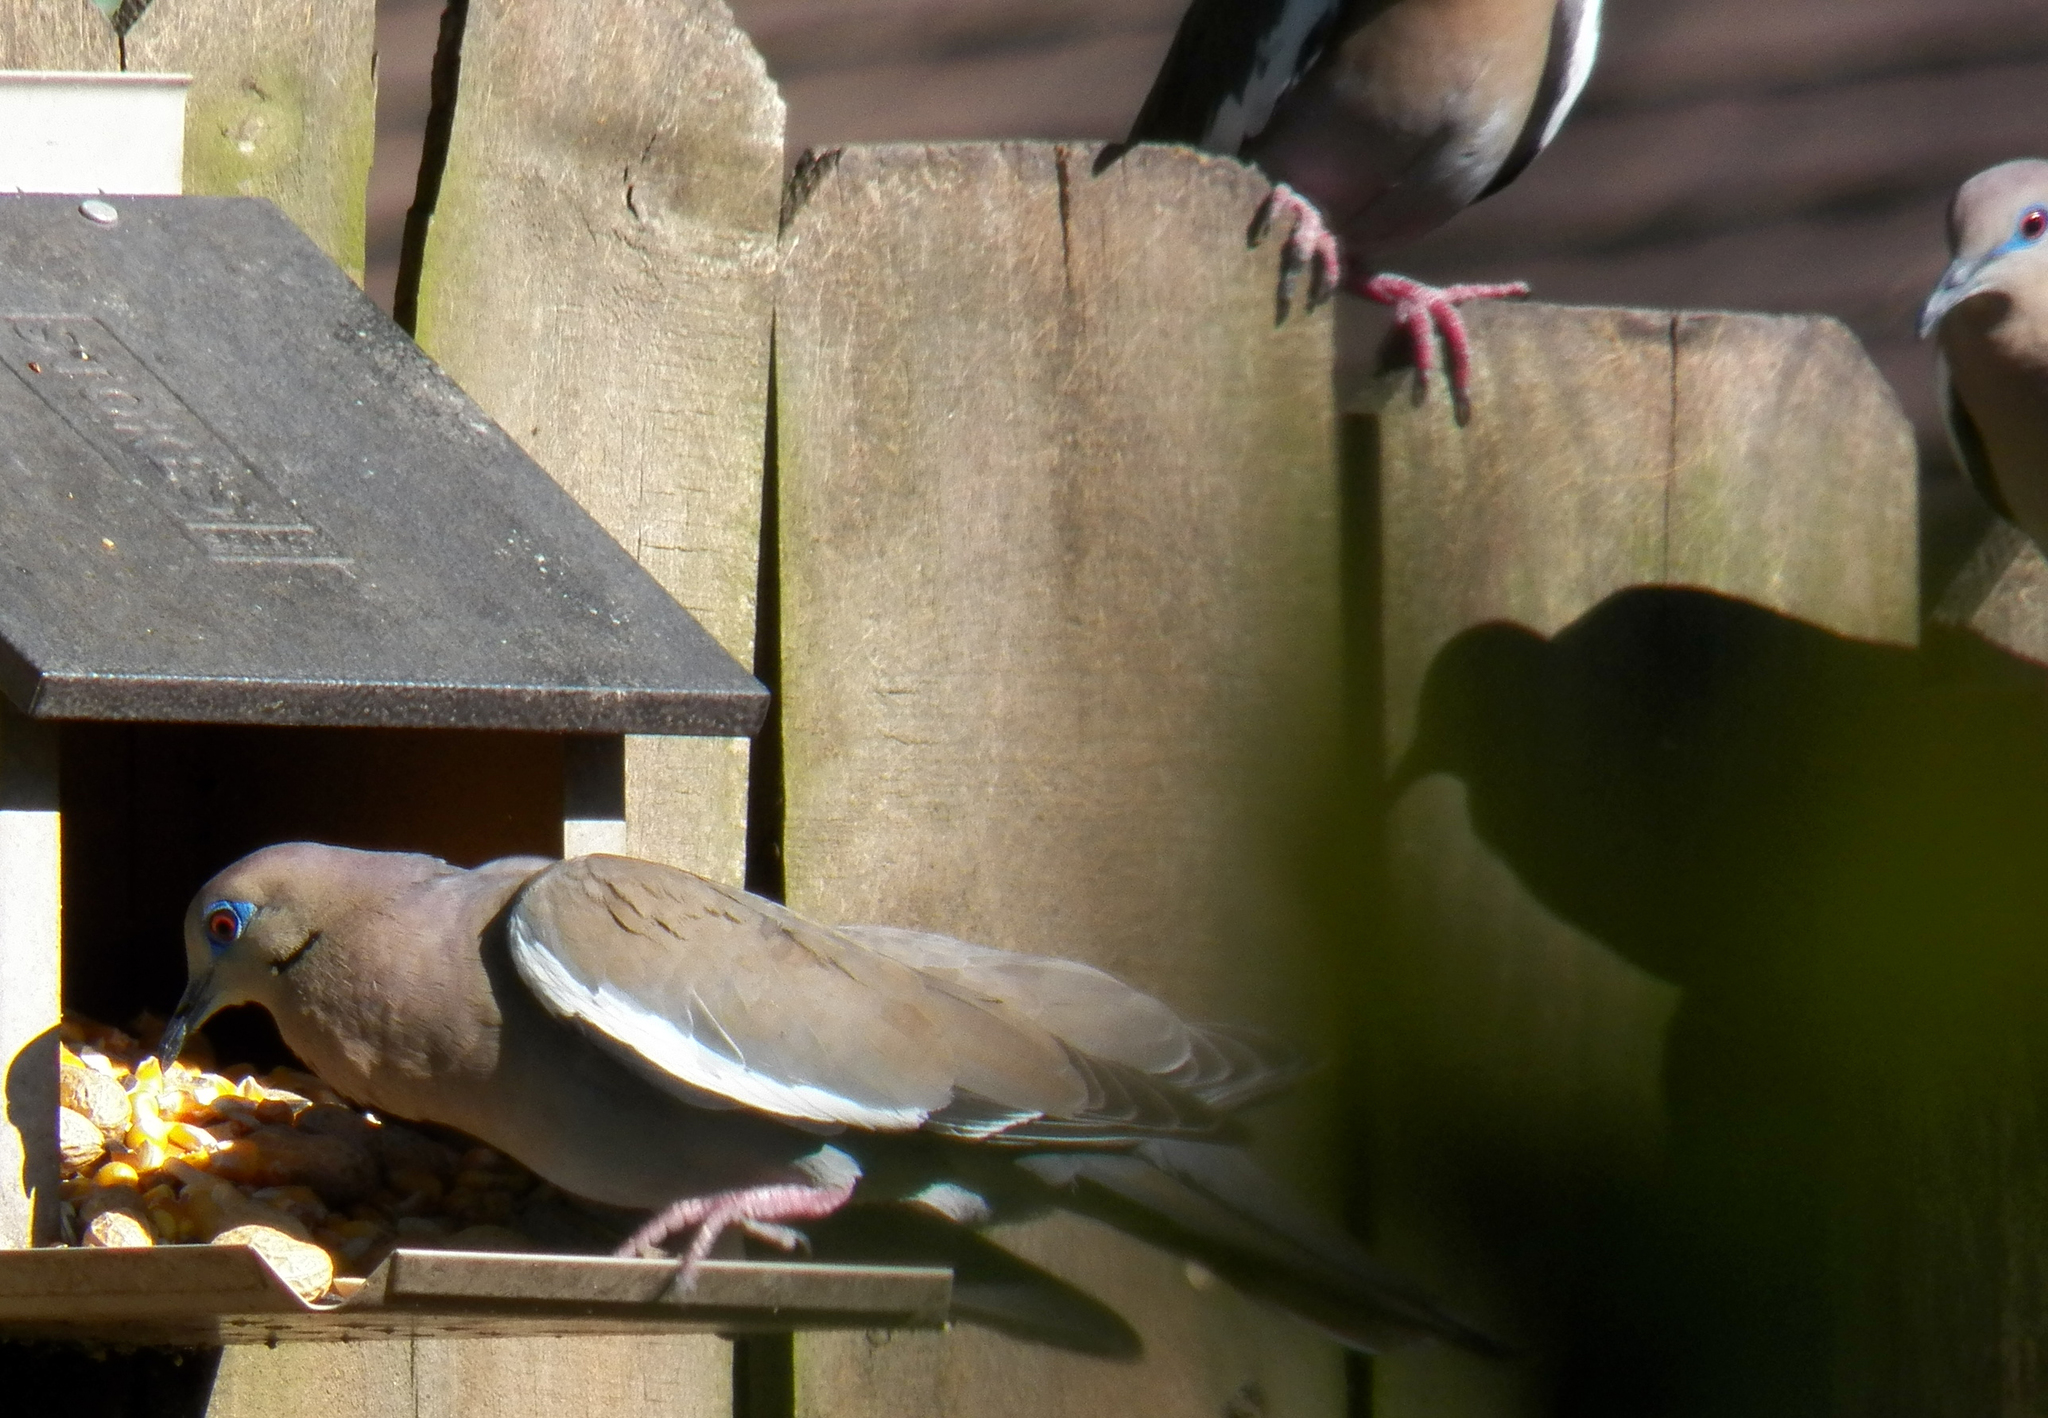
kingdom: Animalia
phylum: Chordata
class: Aves
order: Columbiformes
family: Columbidae
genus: Zenaida
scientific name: Zenaida asiatica
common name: White-winged dove
